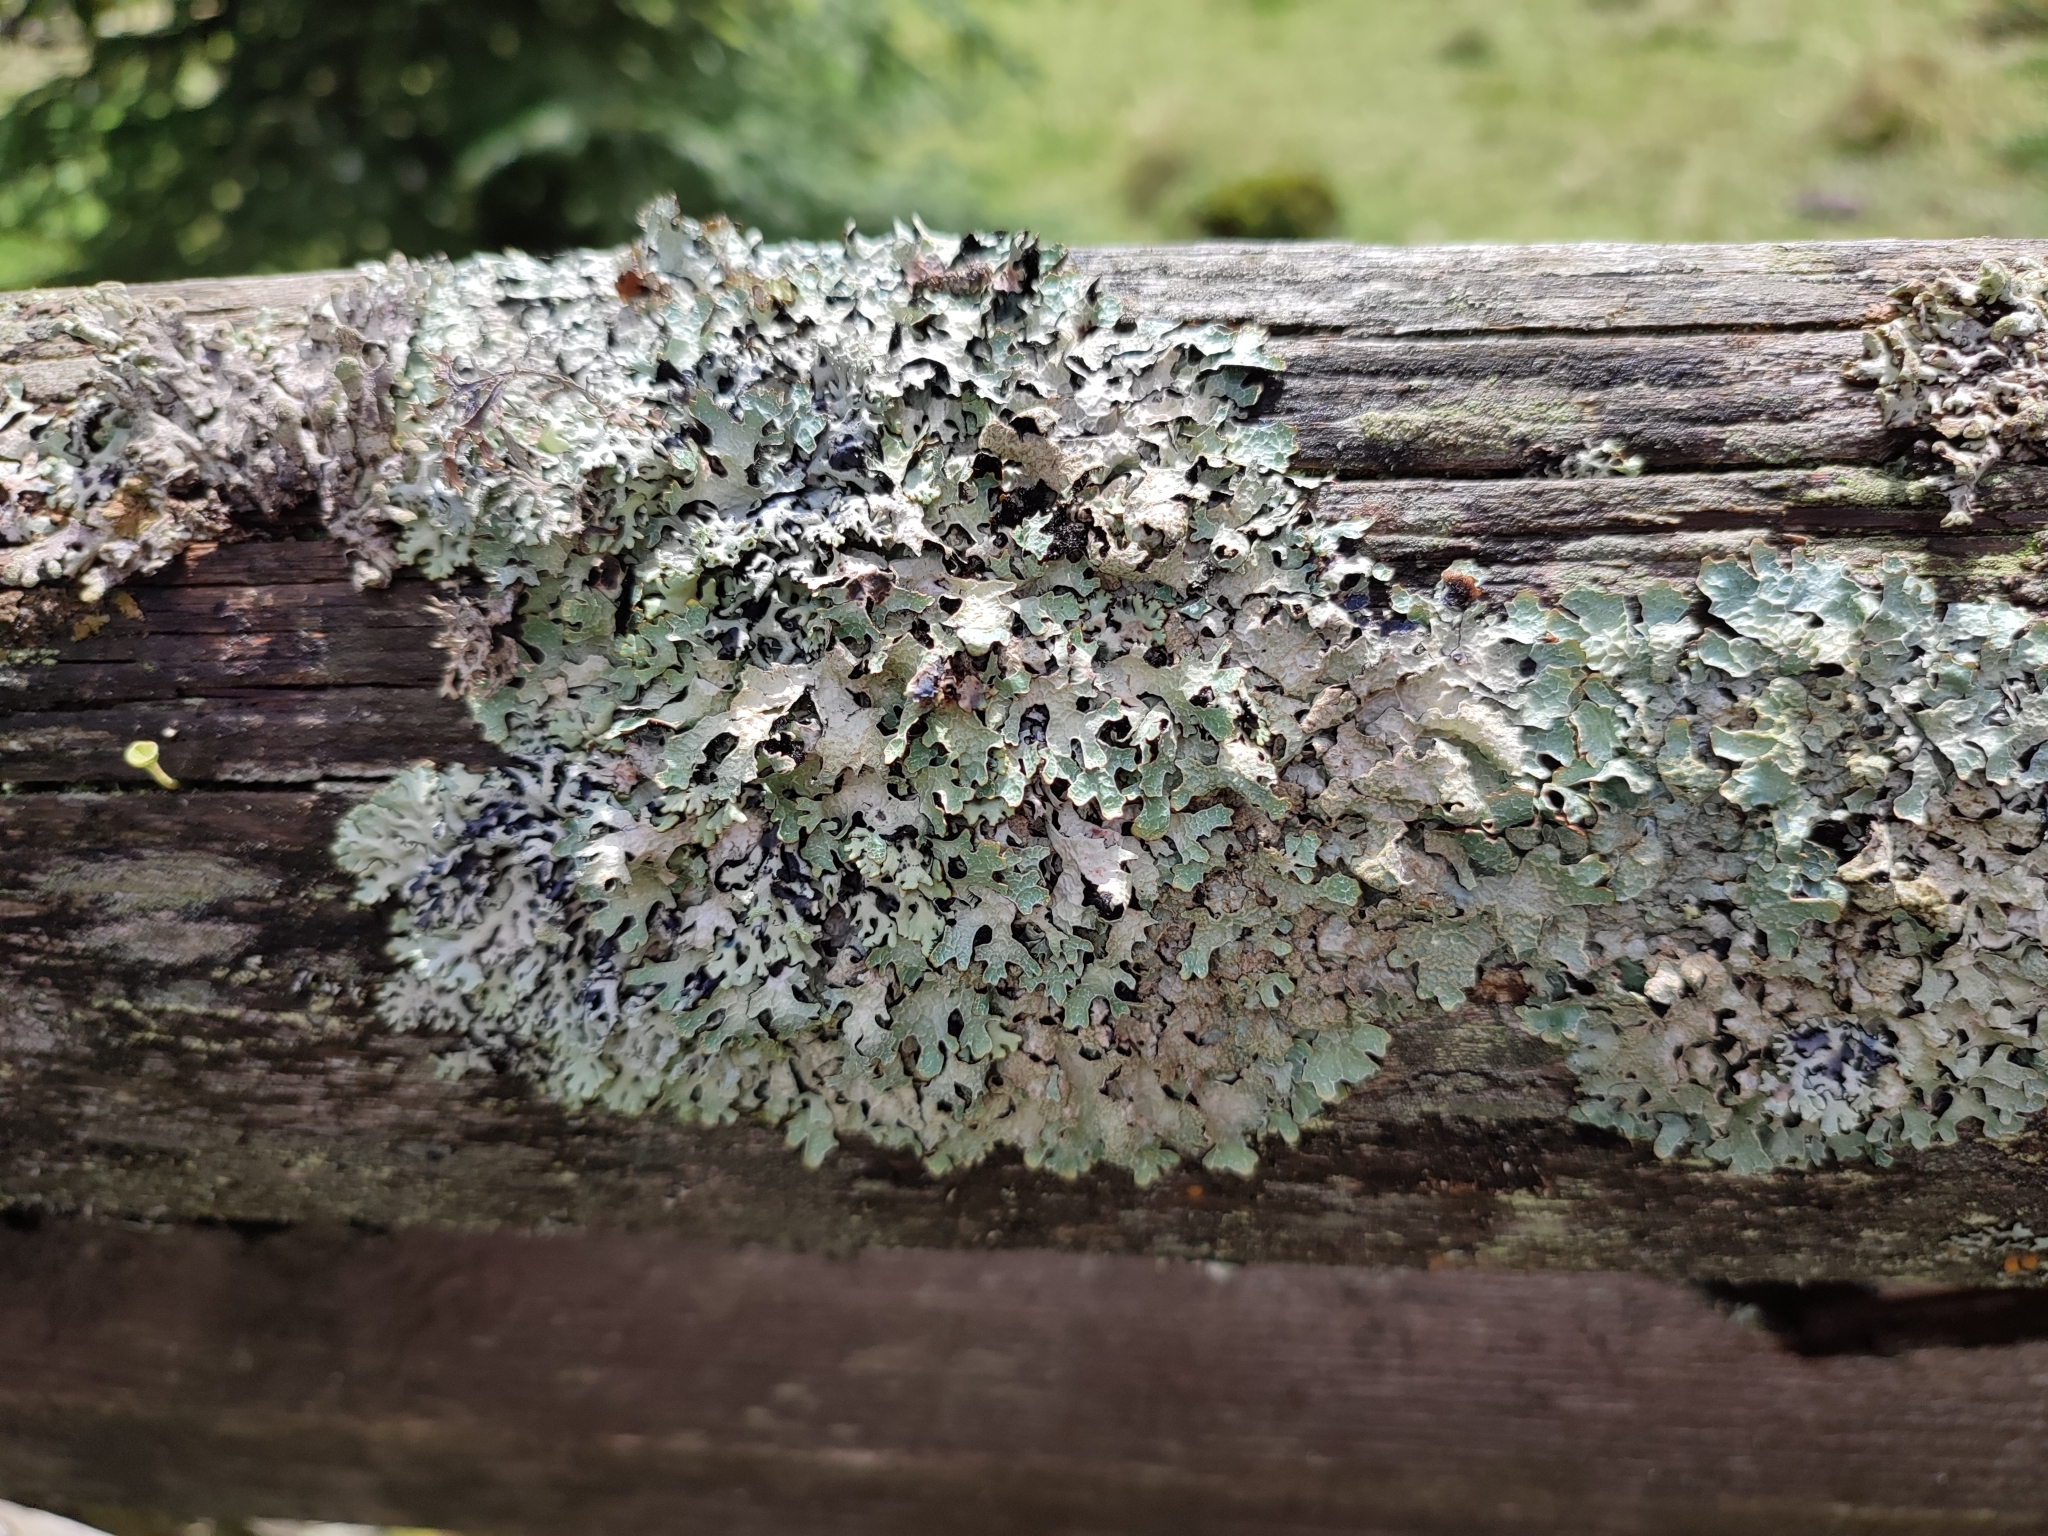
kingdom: Fungi
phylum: Ascomycota
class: Lecanoromycetes
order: Lecanorales
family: Parmeliaceae
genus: Parmelia
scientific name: Parmelia sulcata
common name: Netted shield lichen
